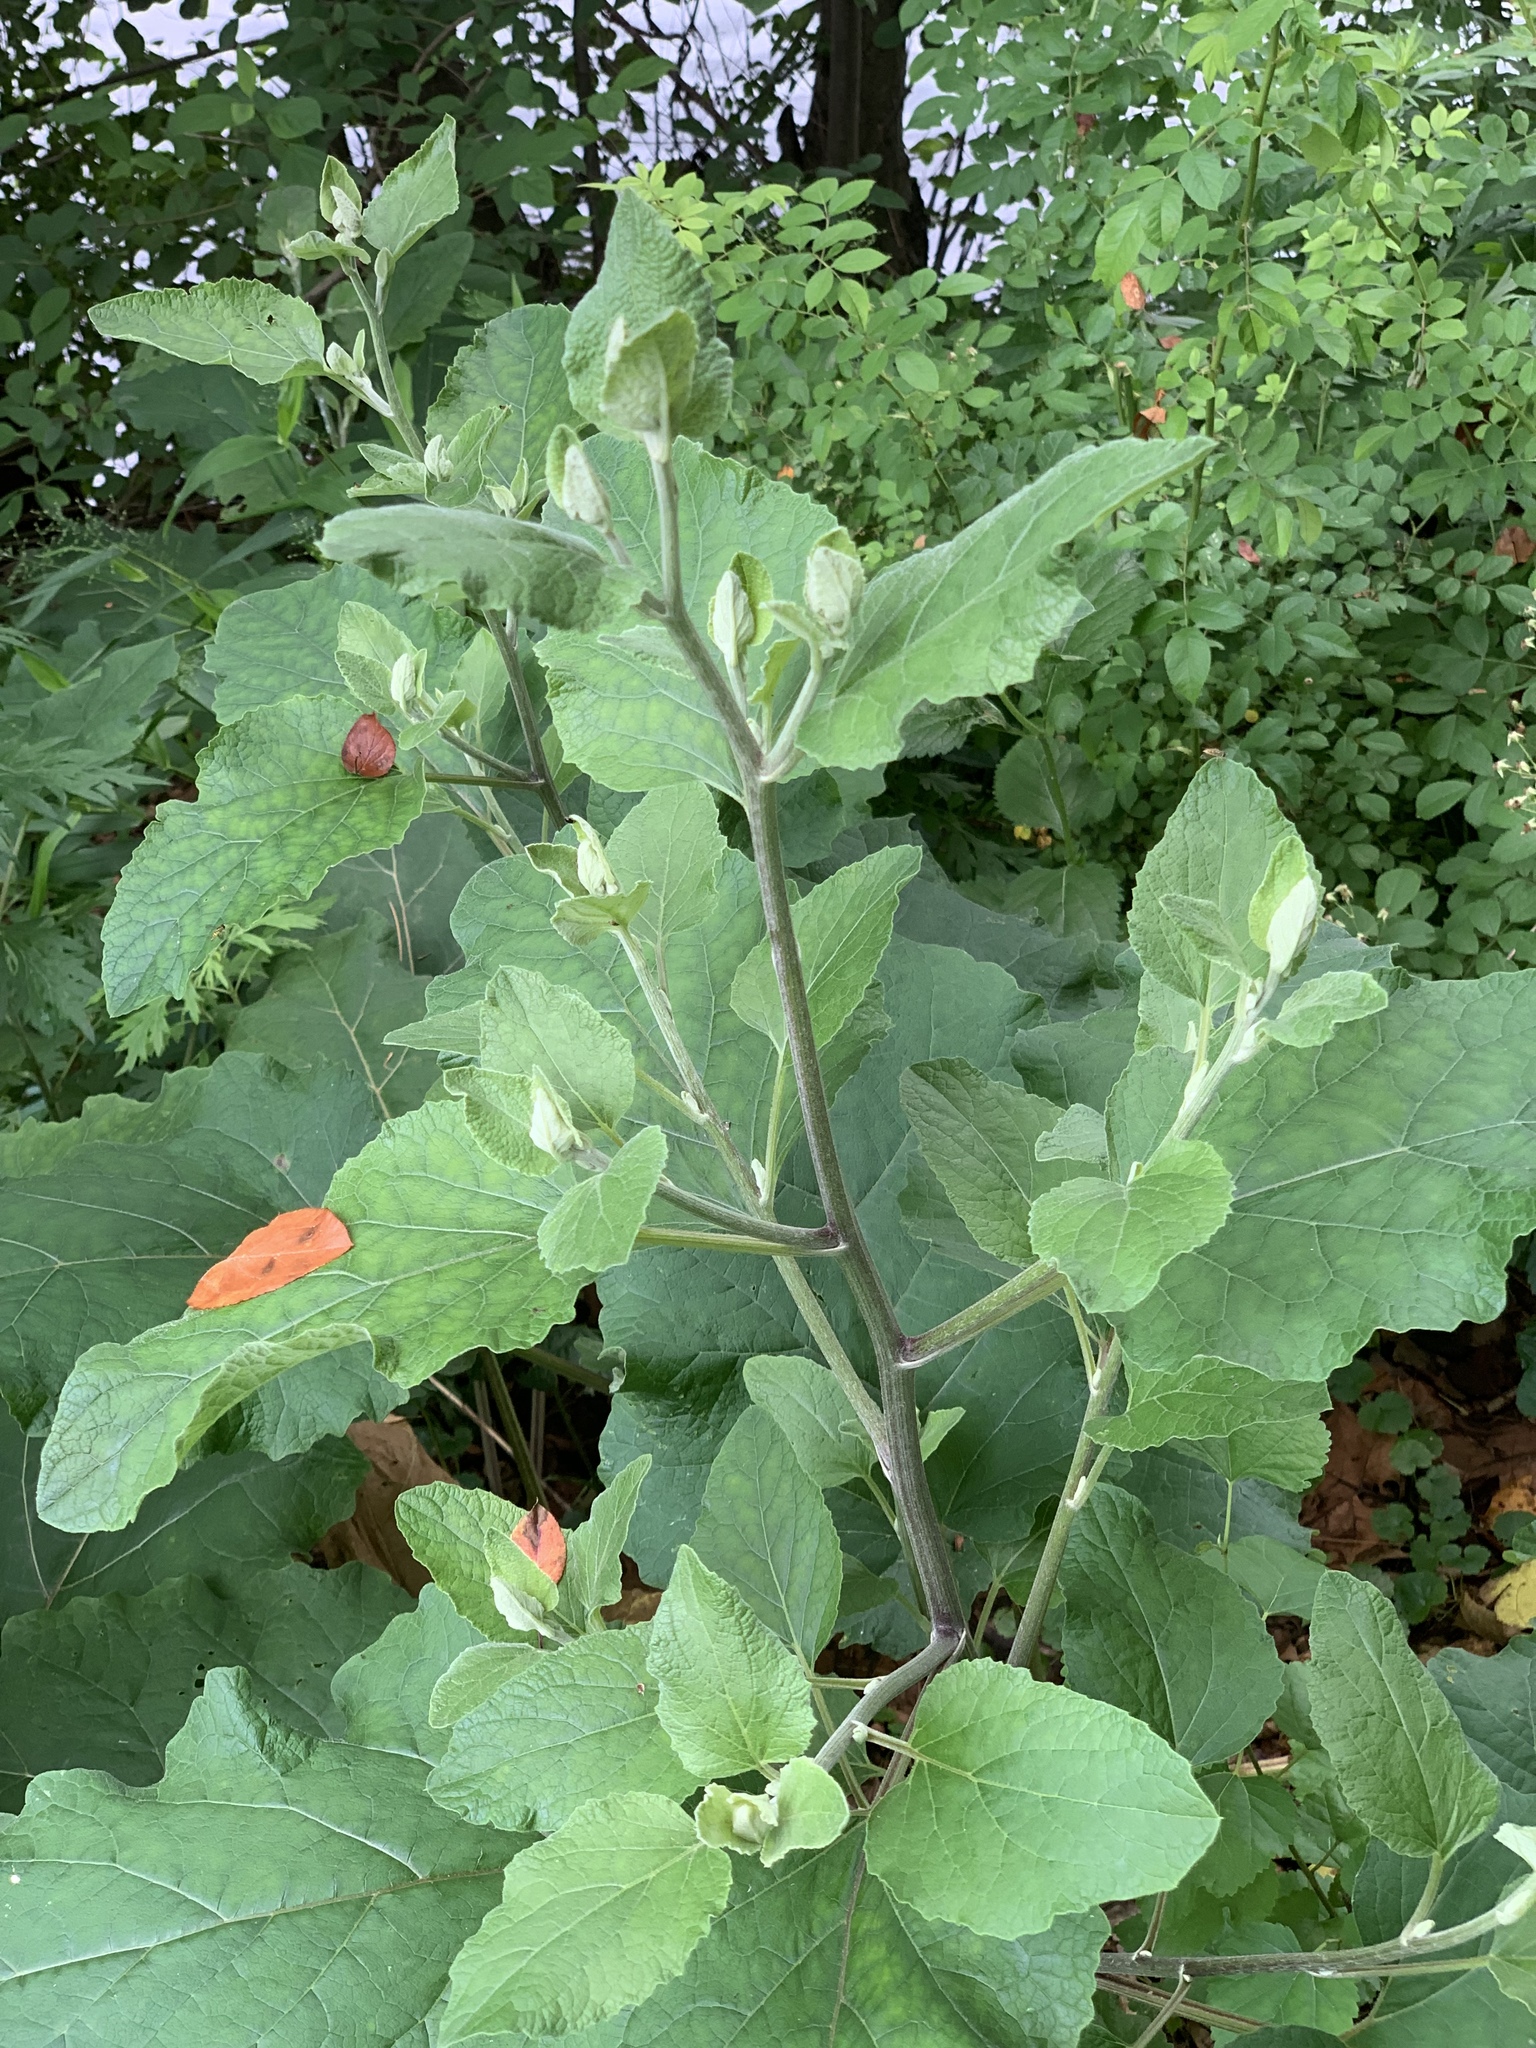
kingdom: Plantae
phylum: Tracheophyta
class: Magnoliopsida
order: Asterales
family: Asteraceae
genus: Arctium
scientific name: Arctium
